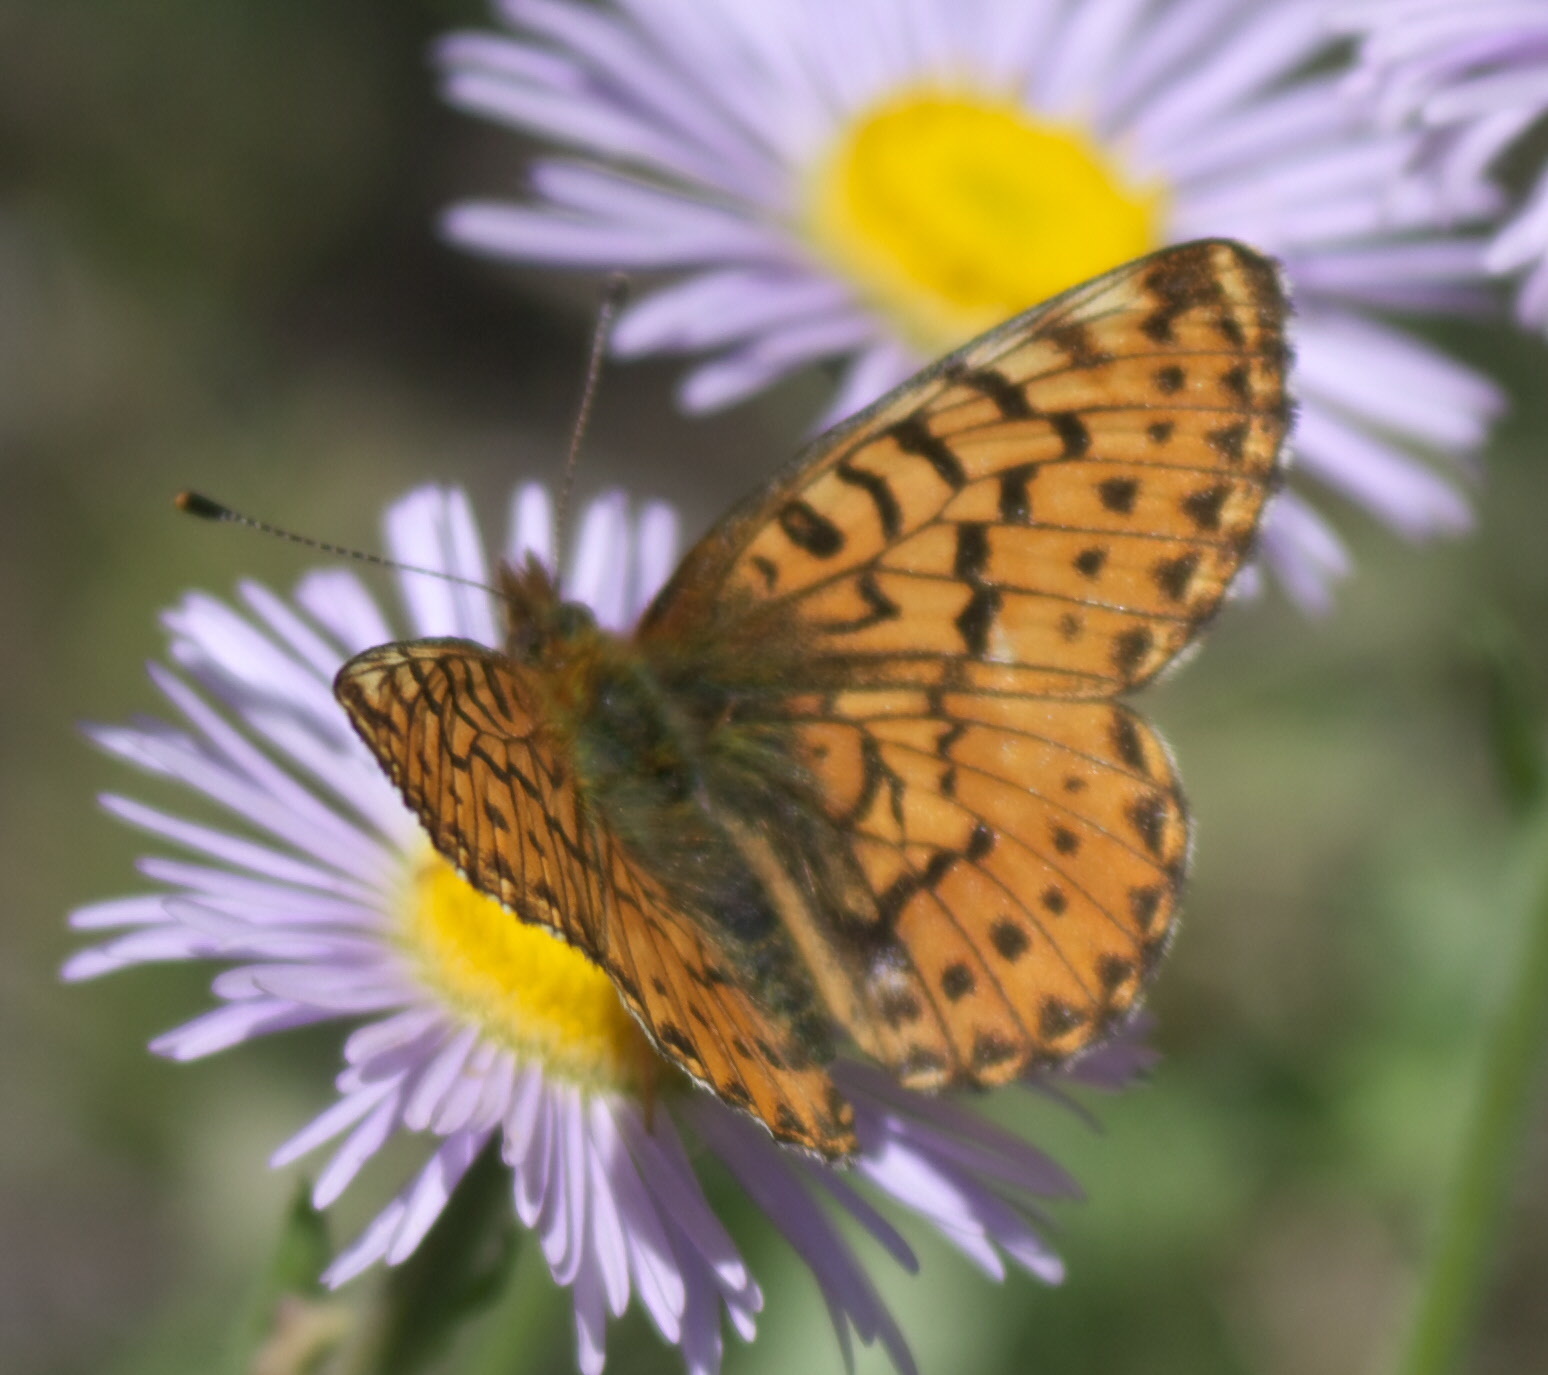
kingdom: Animalia
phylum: Arthropoda
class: Insecta
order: Lepidoptera
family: Nymphalidae
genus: Boloria
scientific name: Boloria chariclea
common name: Arctic fritillary
